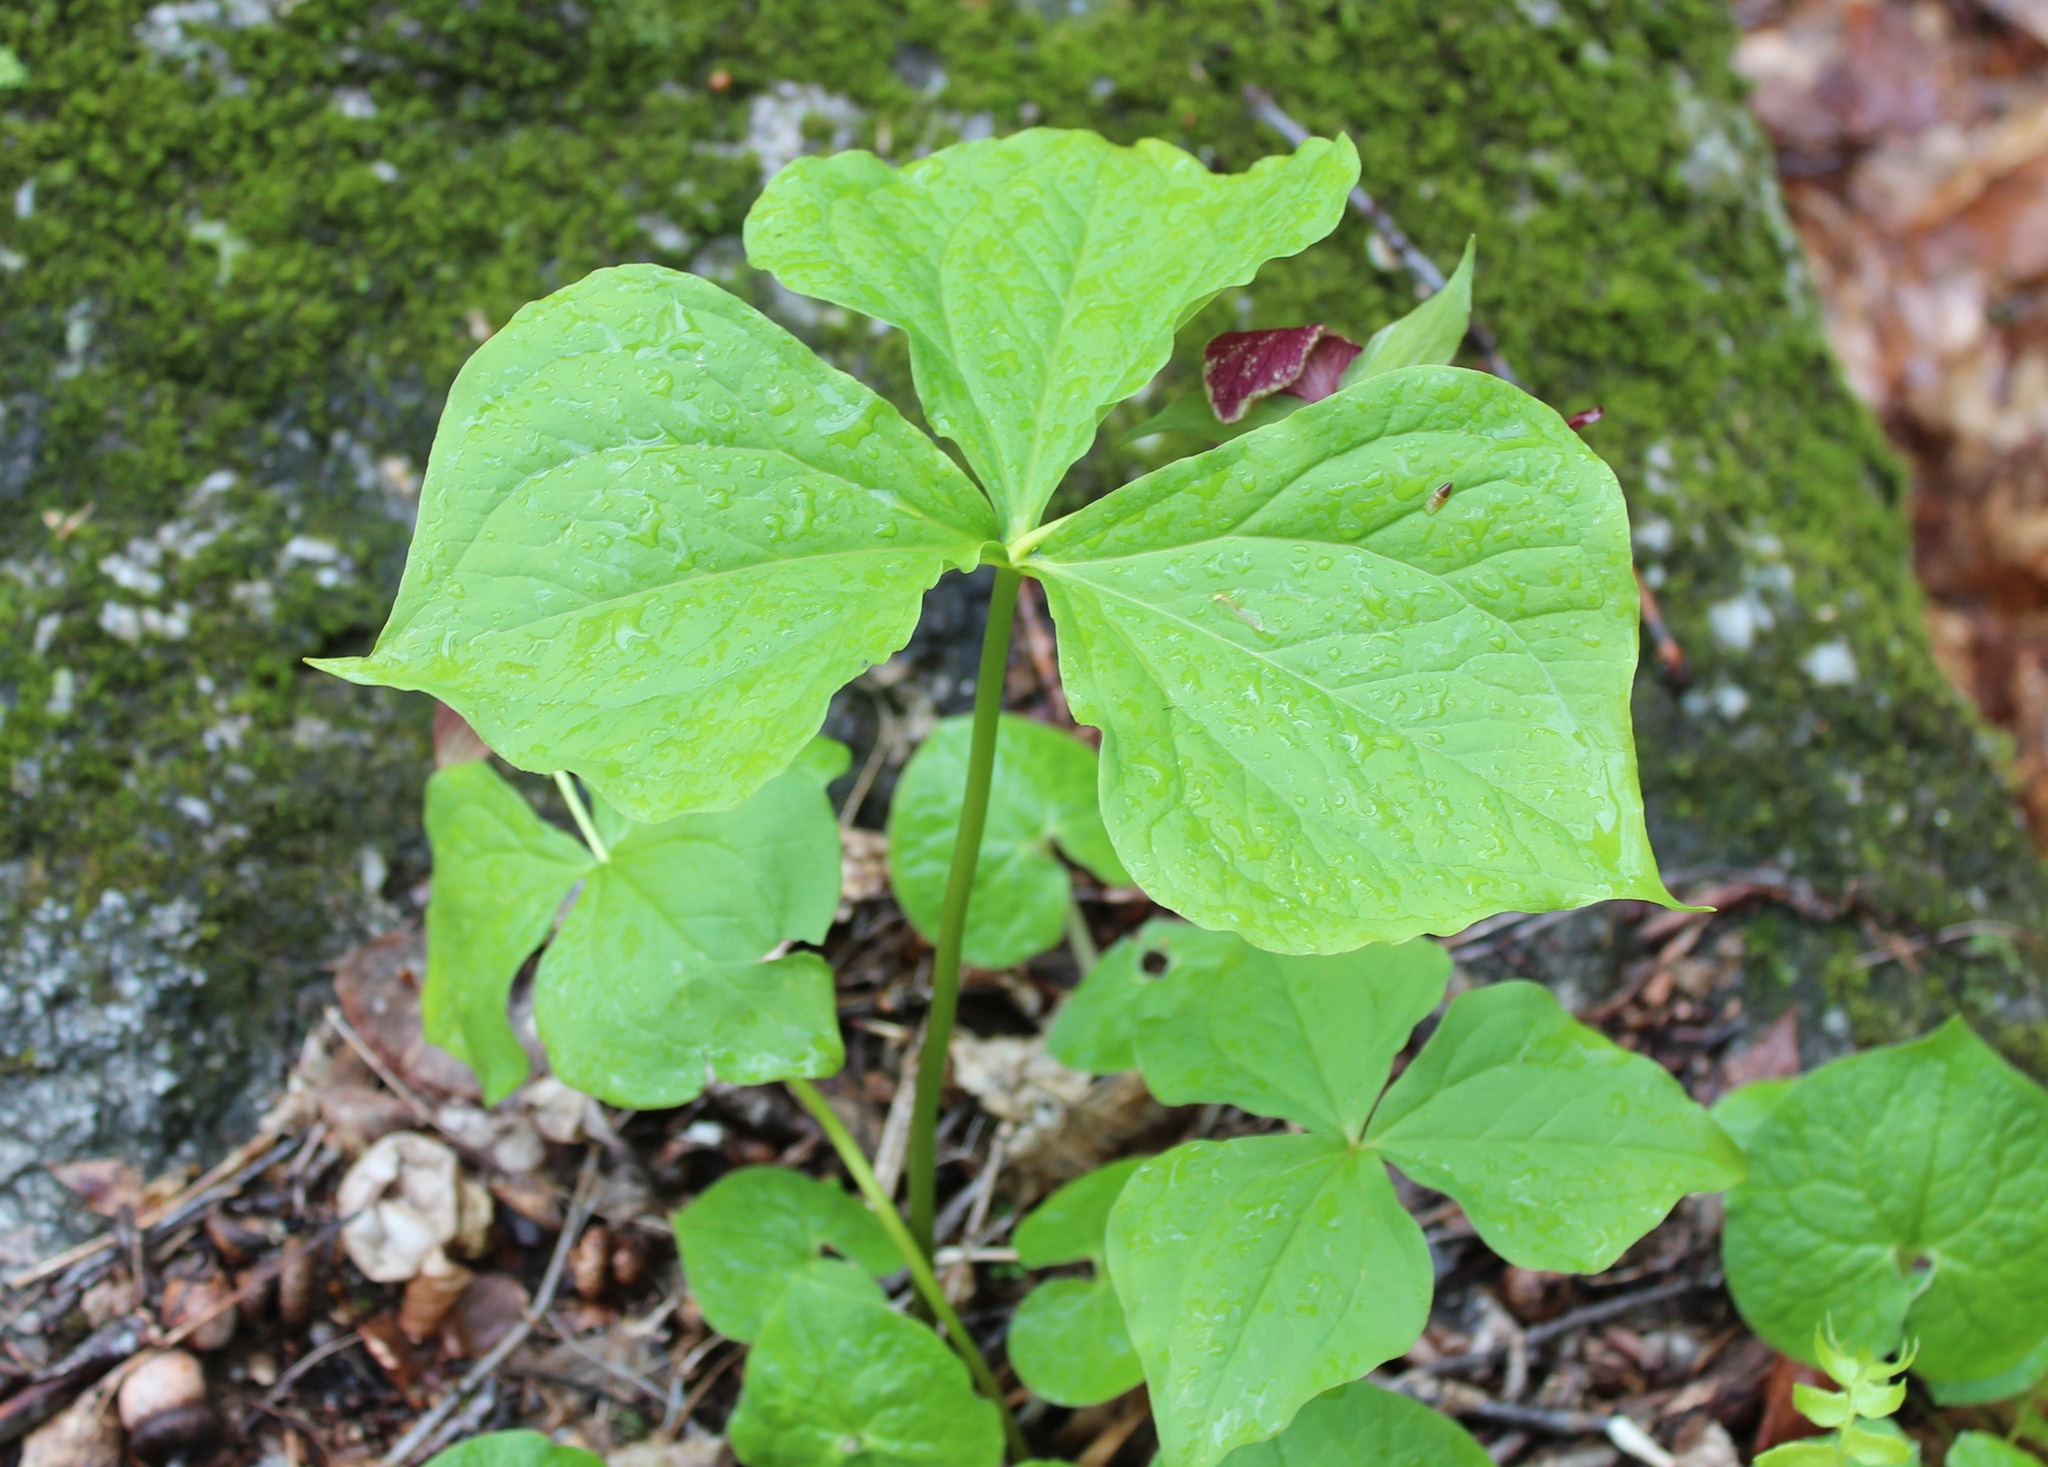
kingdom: Plantae
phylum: Tracheophyta
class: Liliopsida
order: Liliales
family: Melanthiaceae
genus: Trillium
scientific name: Trillium erectum
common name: Purple trillium
